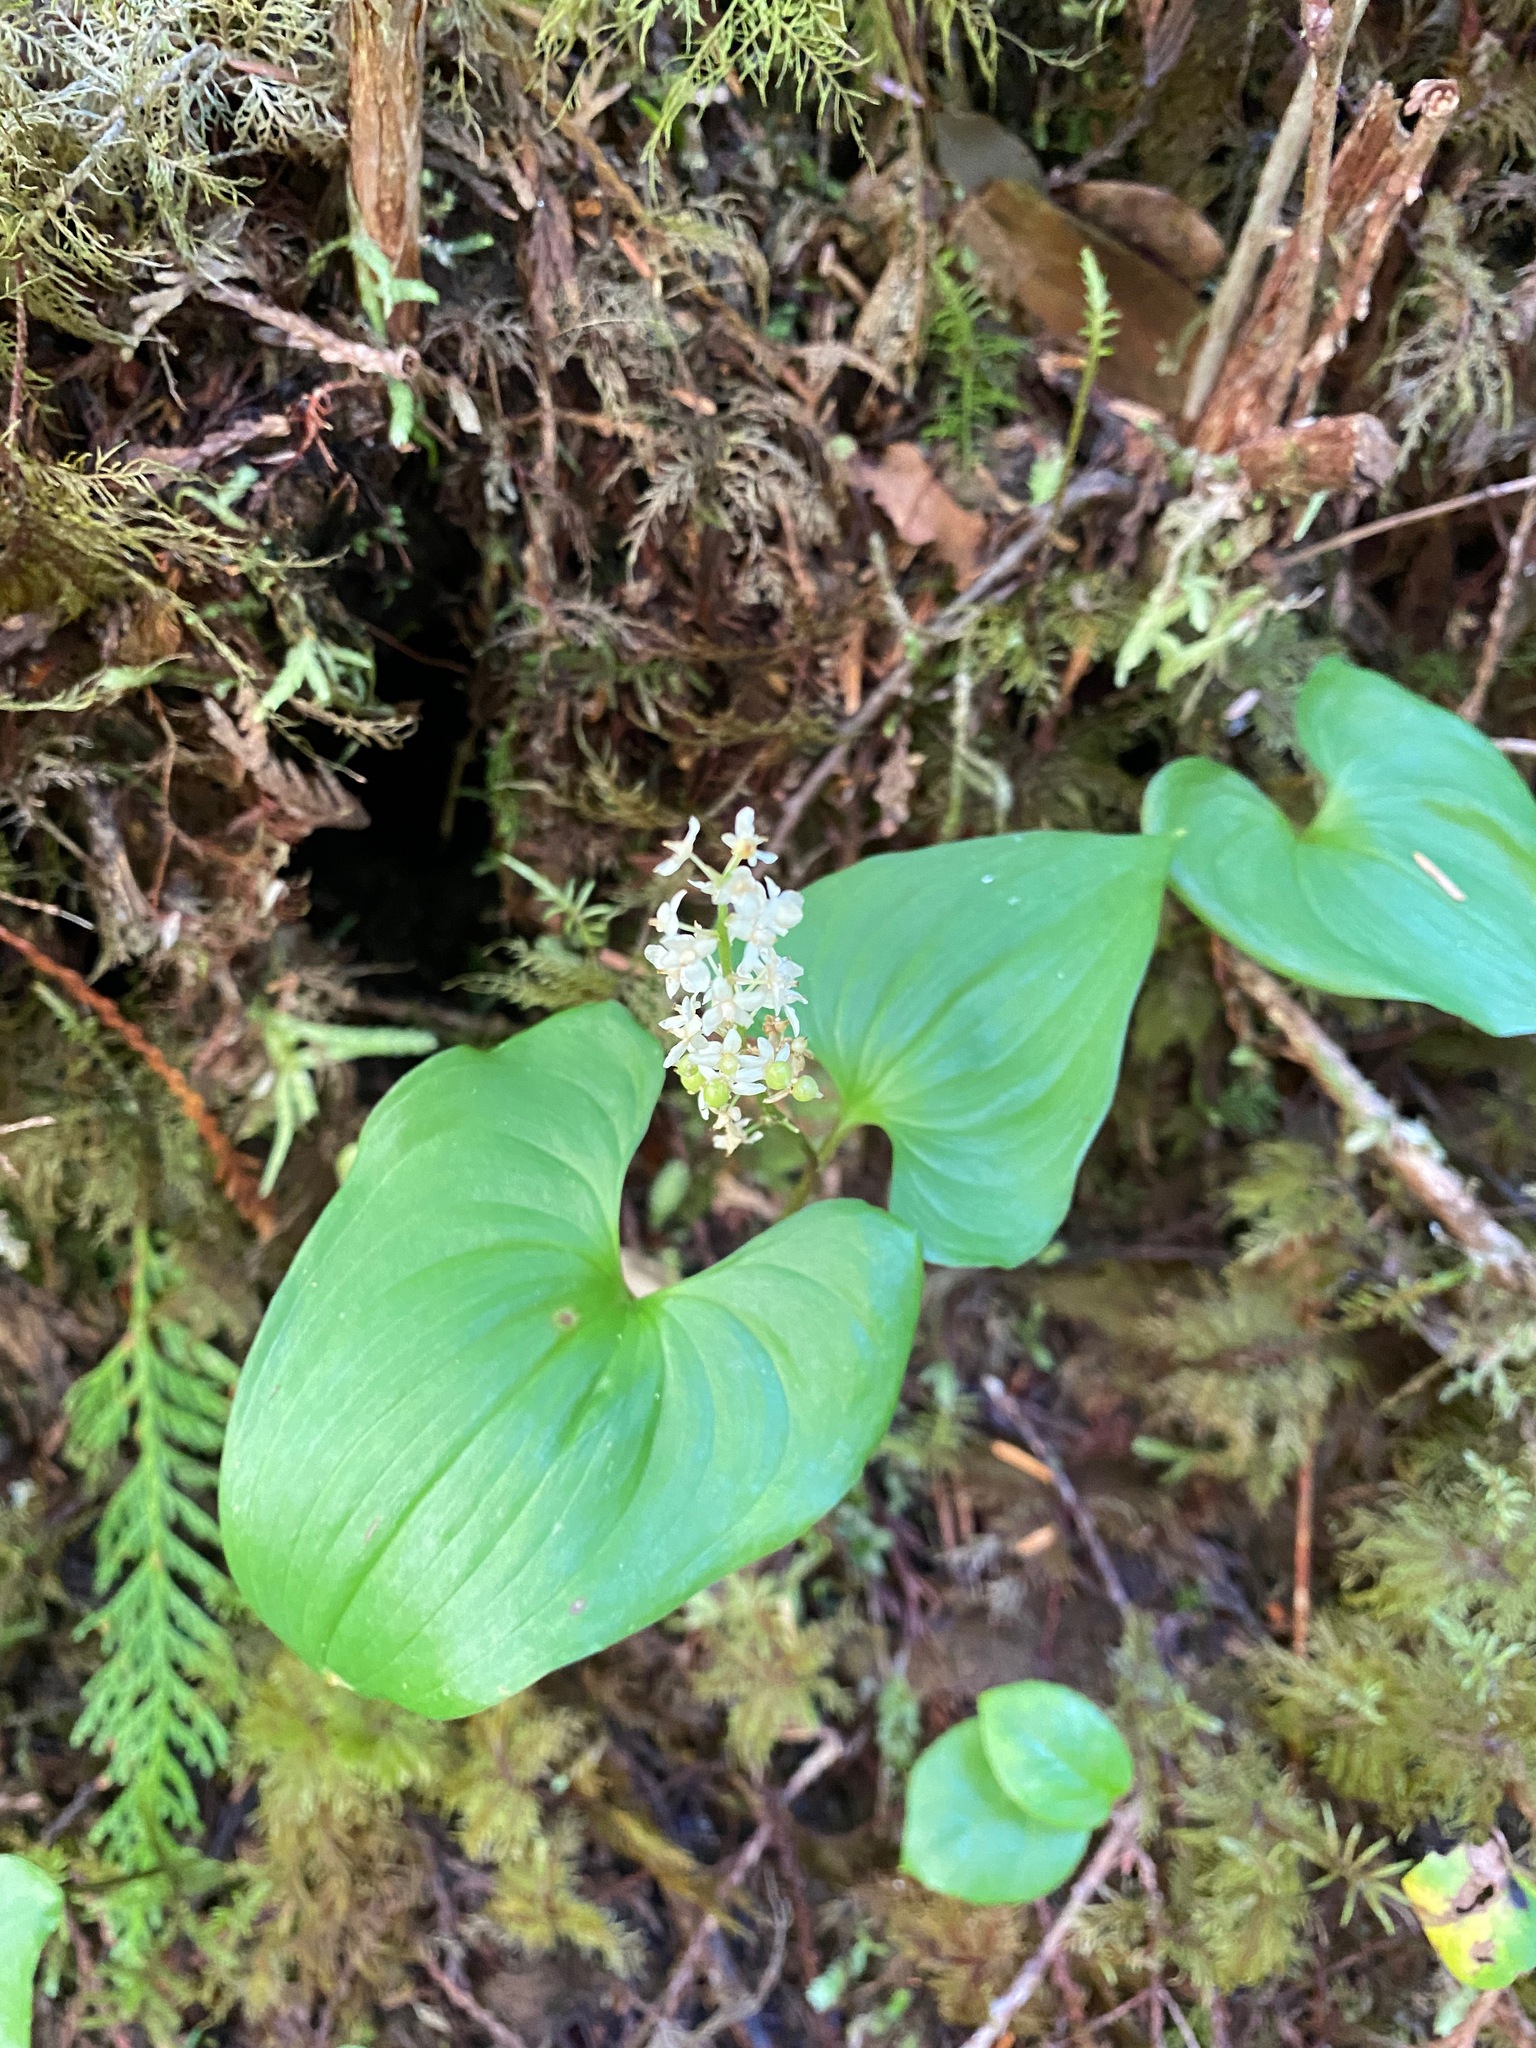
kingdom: Plantae
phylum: Tracheophyta
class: Liliopsida
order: Asparagales
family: Asparagaceae
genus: Maianthemum
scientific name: Maianthemum dilatatum
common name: False lily-of-the-valley
